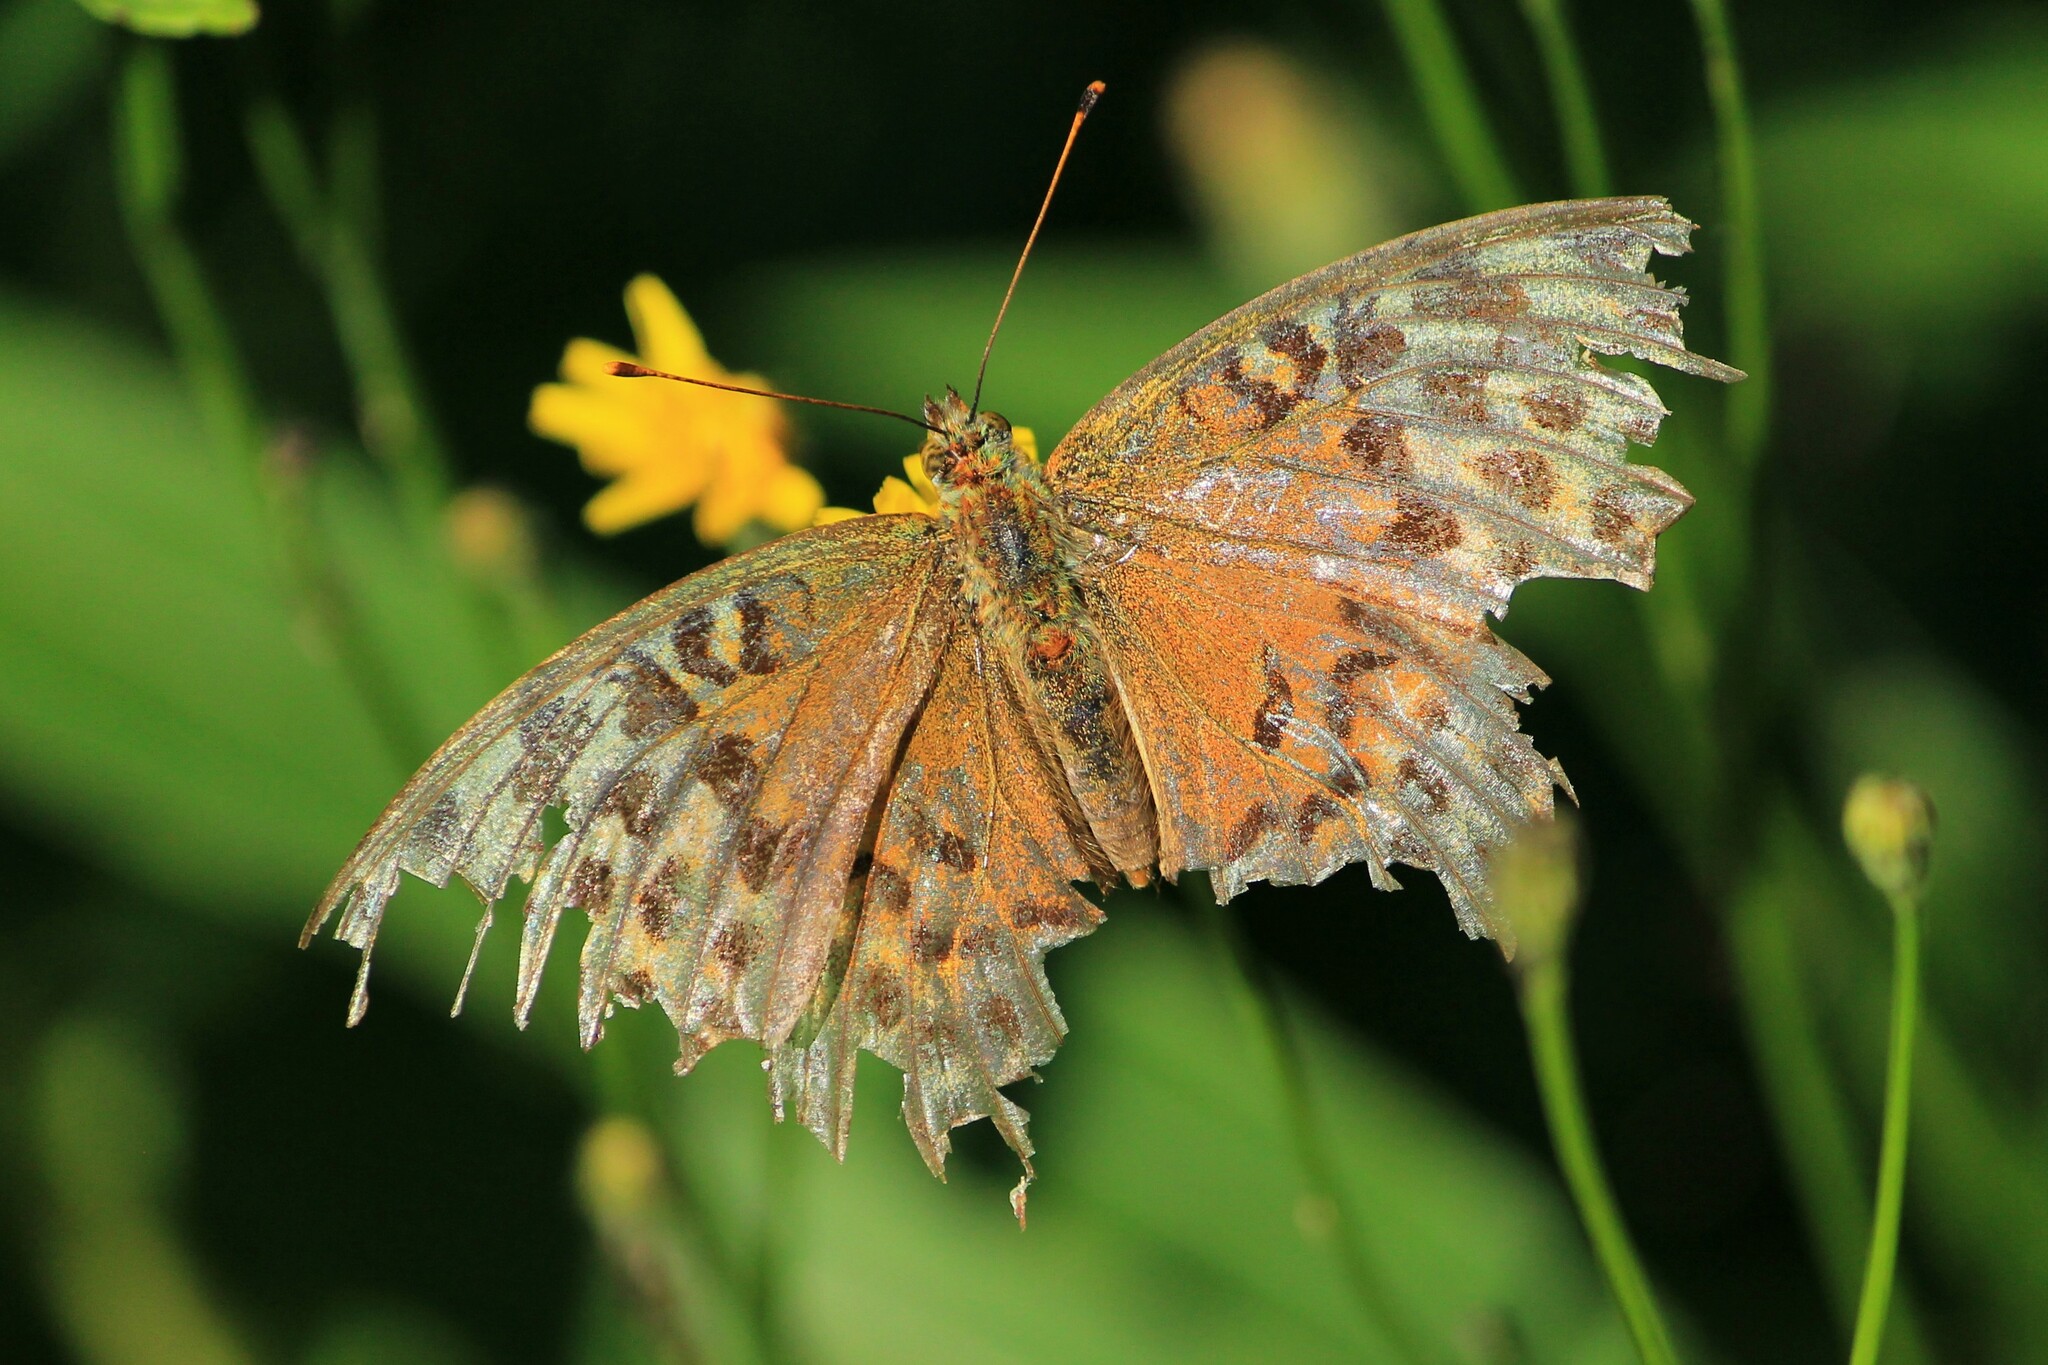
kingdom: Animalia
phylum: Arthropoda
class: Insecta
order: Lepidoptera
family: Nymphalidae
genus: Argynnis
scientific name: Argynnis paphia
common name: Silver-washed fritillary
